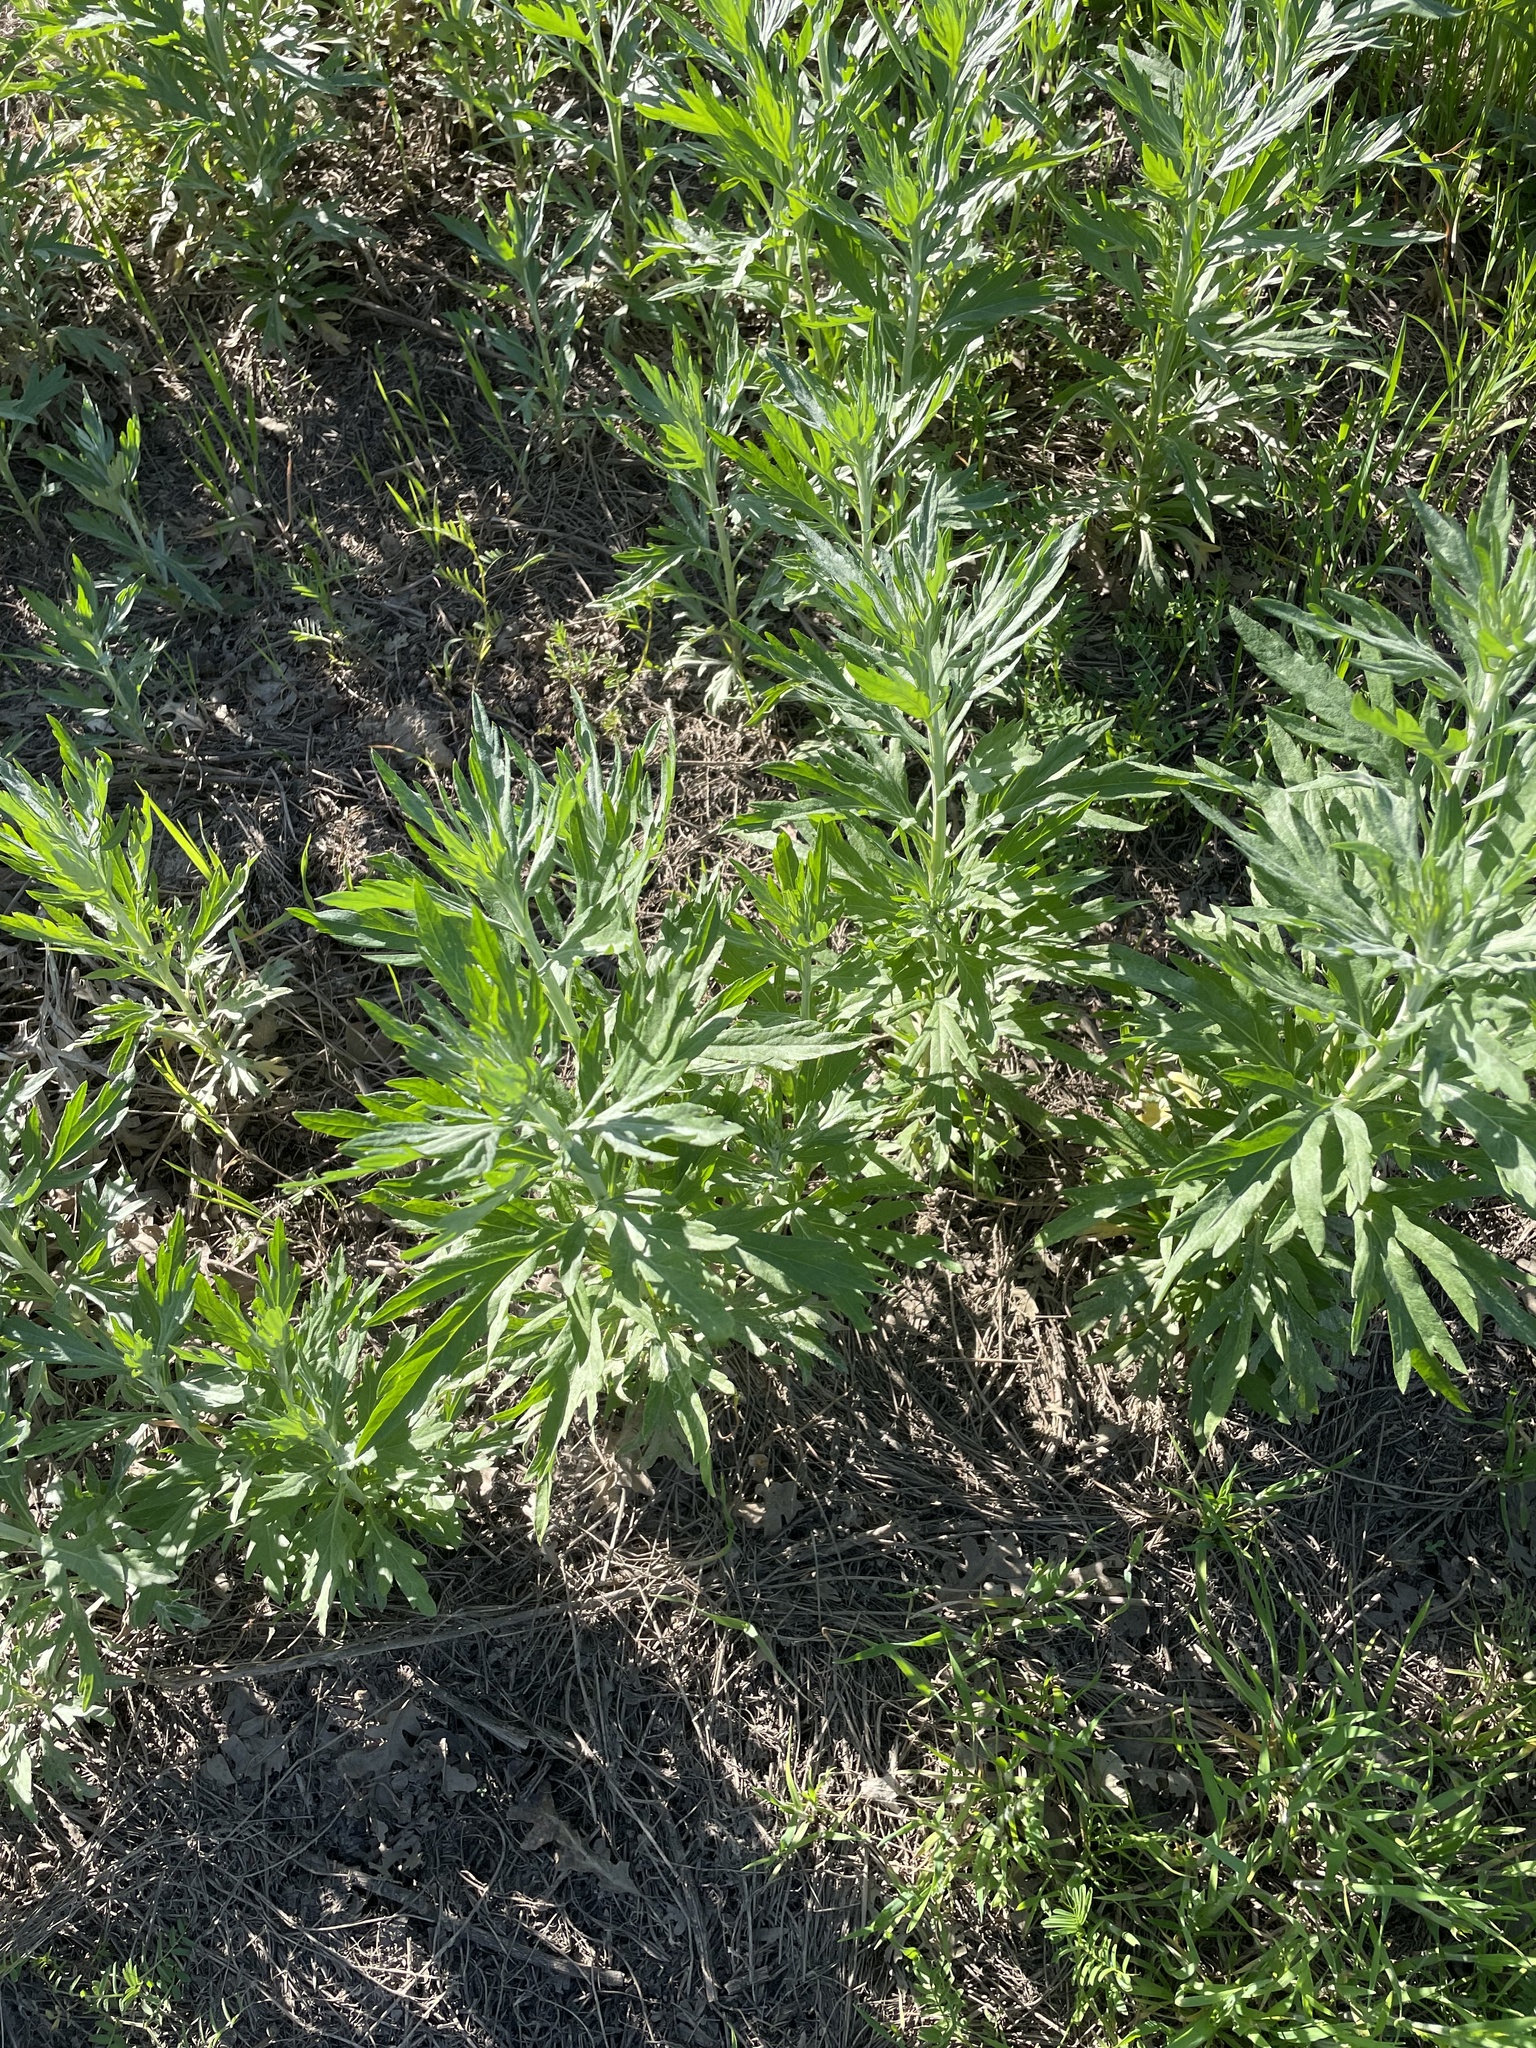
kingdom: Plantae
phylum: Tracheophyta
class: Magnoliopsida
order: Asterales
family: Asteraceae
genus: Artemisia
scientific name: Artemisia douglasiana
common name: Northwest mugwort
